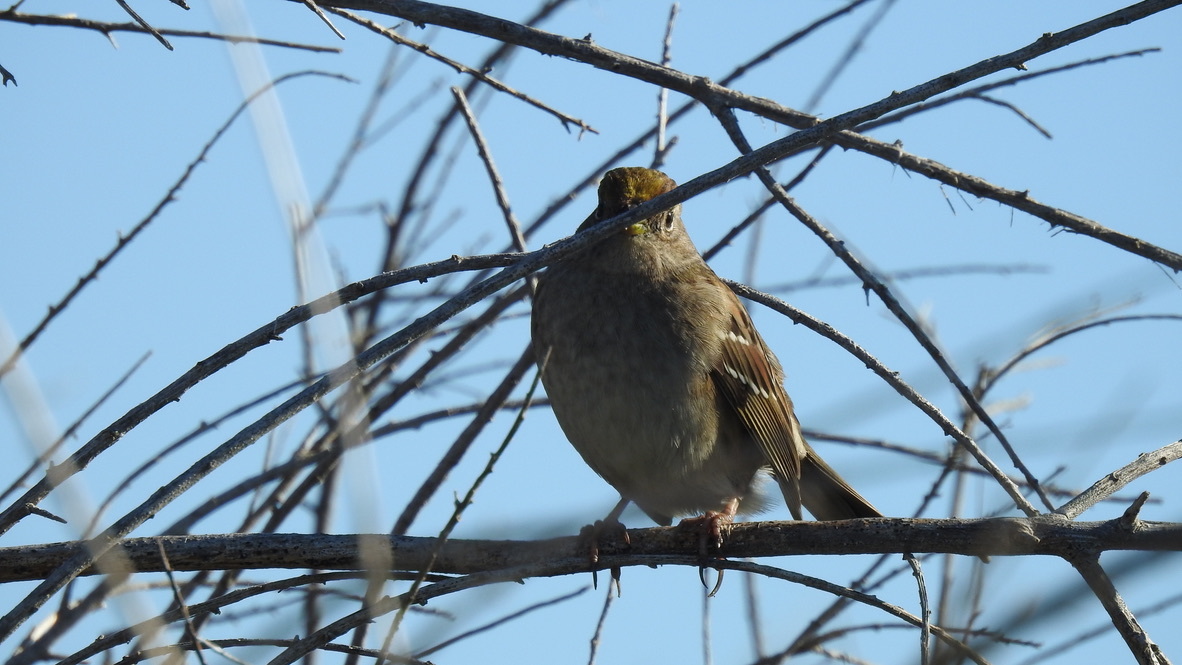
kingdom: Animalia
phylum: Chordata
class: Aves
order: Passeriformes
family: Passerellidae
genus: Zonotrichia
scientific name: Zonotrichia atricapilla
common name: Golden-crowned sparrow
